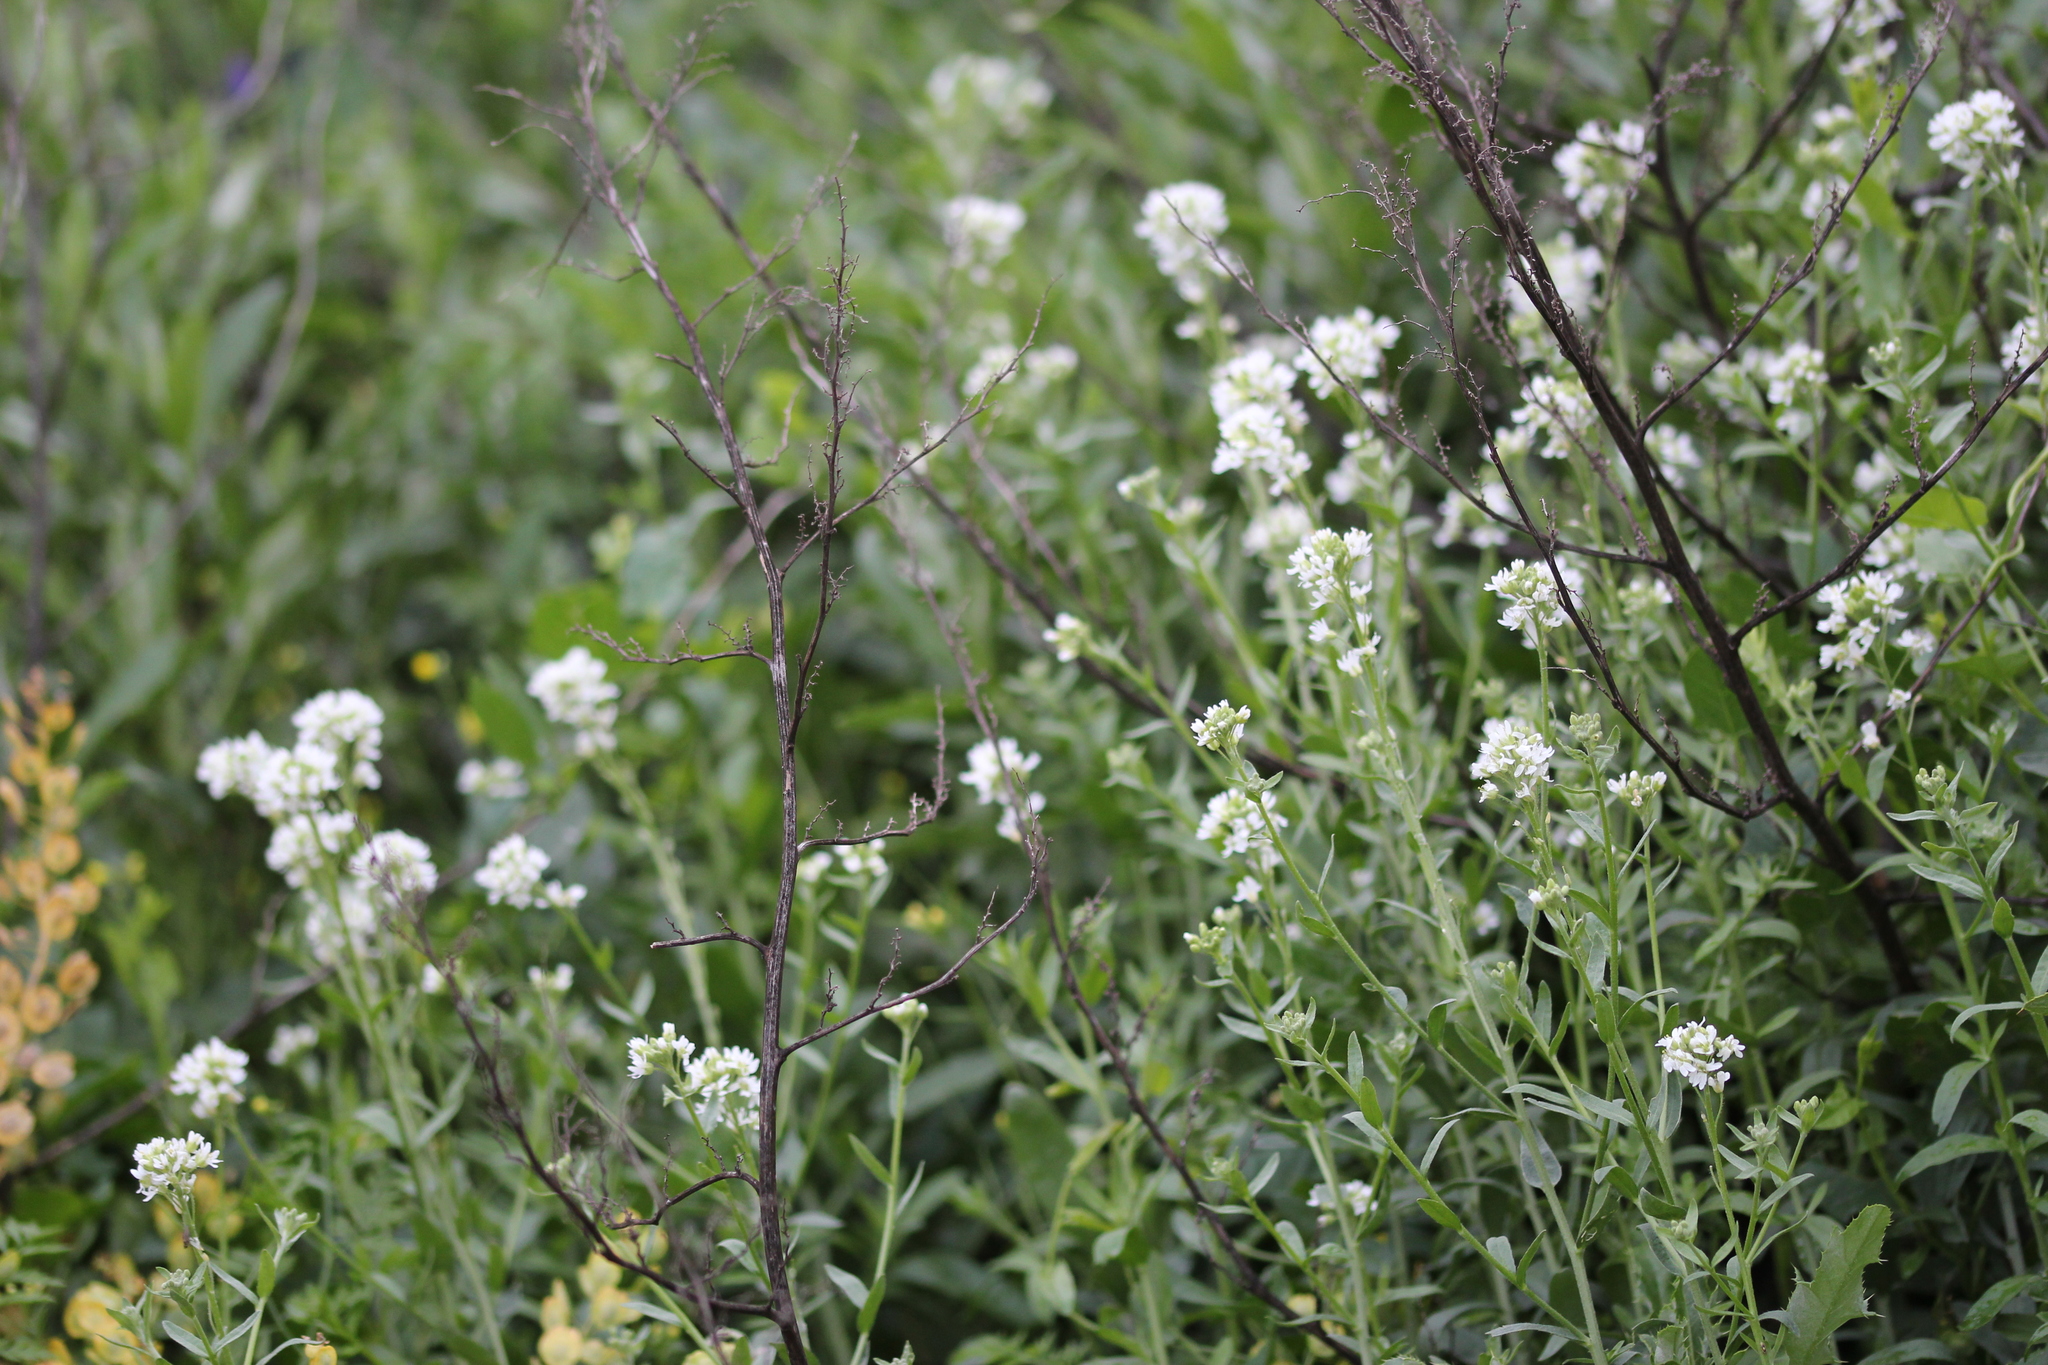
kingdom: Plantae
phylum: Tracheophyta
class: Magnoliopsida
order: Brassicales
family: Brassicaceae
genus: Berteroa
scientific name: Berteroa incana
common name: Hoary alison
